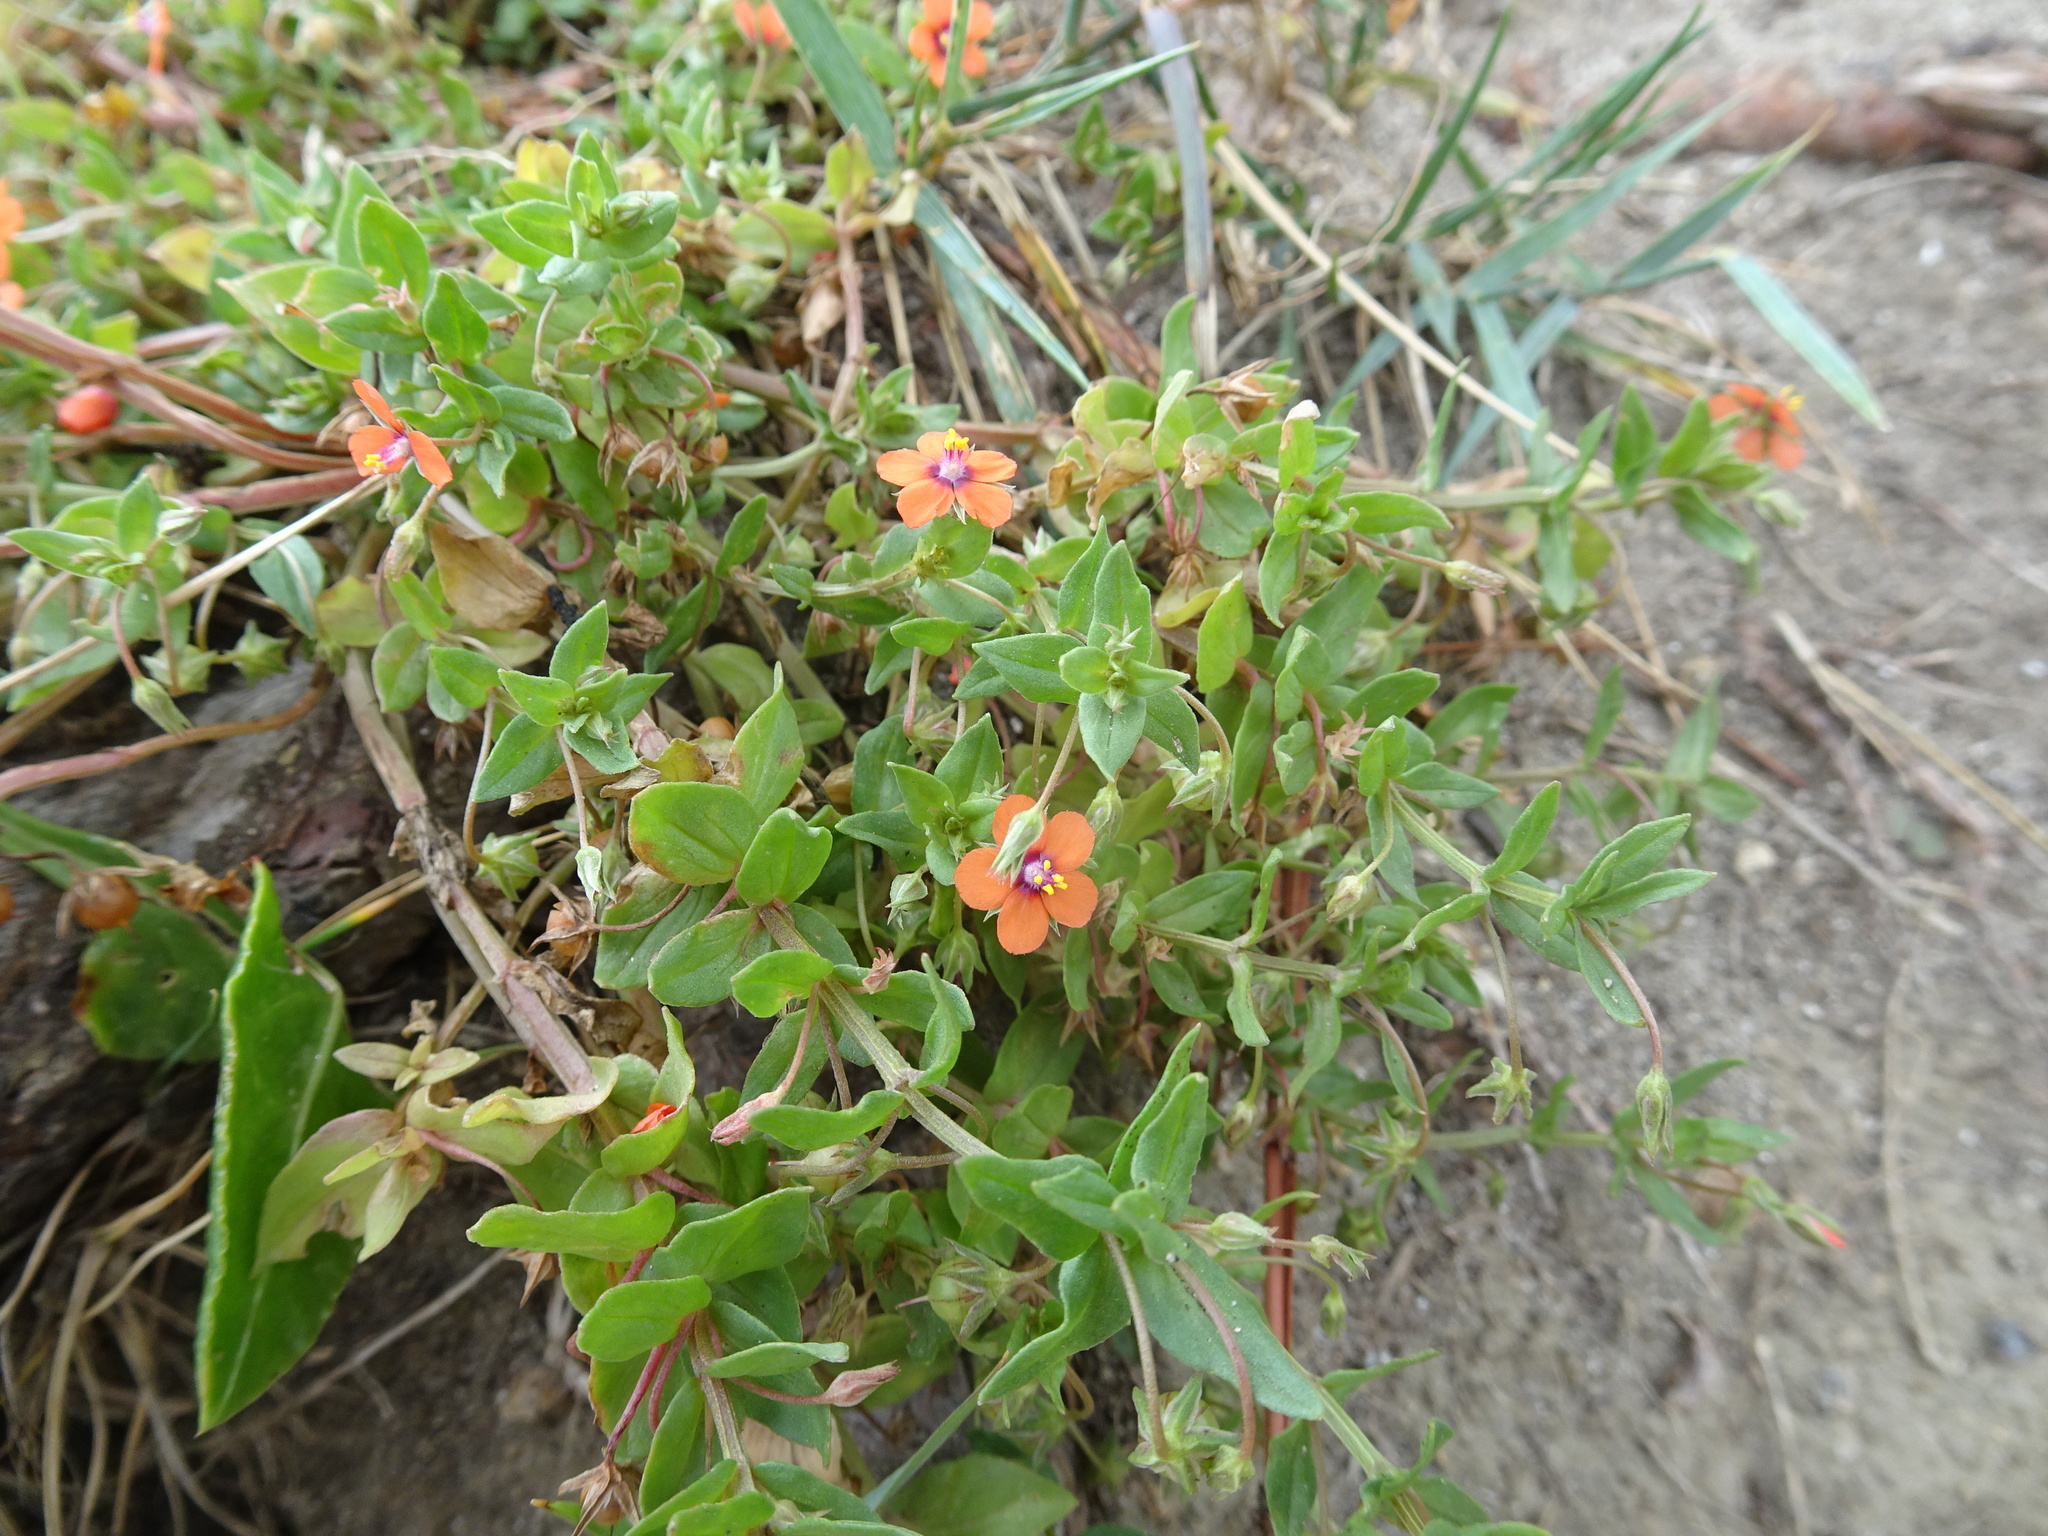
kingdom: Plantae
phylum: Tracheophyta
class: Magnoliopsida
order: Ericales
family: Primulaceae
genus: Lysimachia
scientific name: Lysimachia arvensis
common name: Scarlet pimpernel
